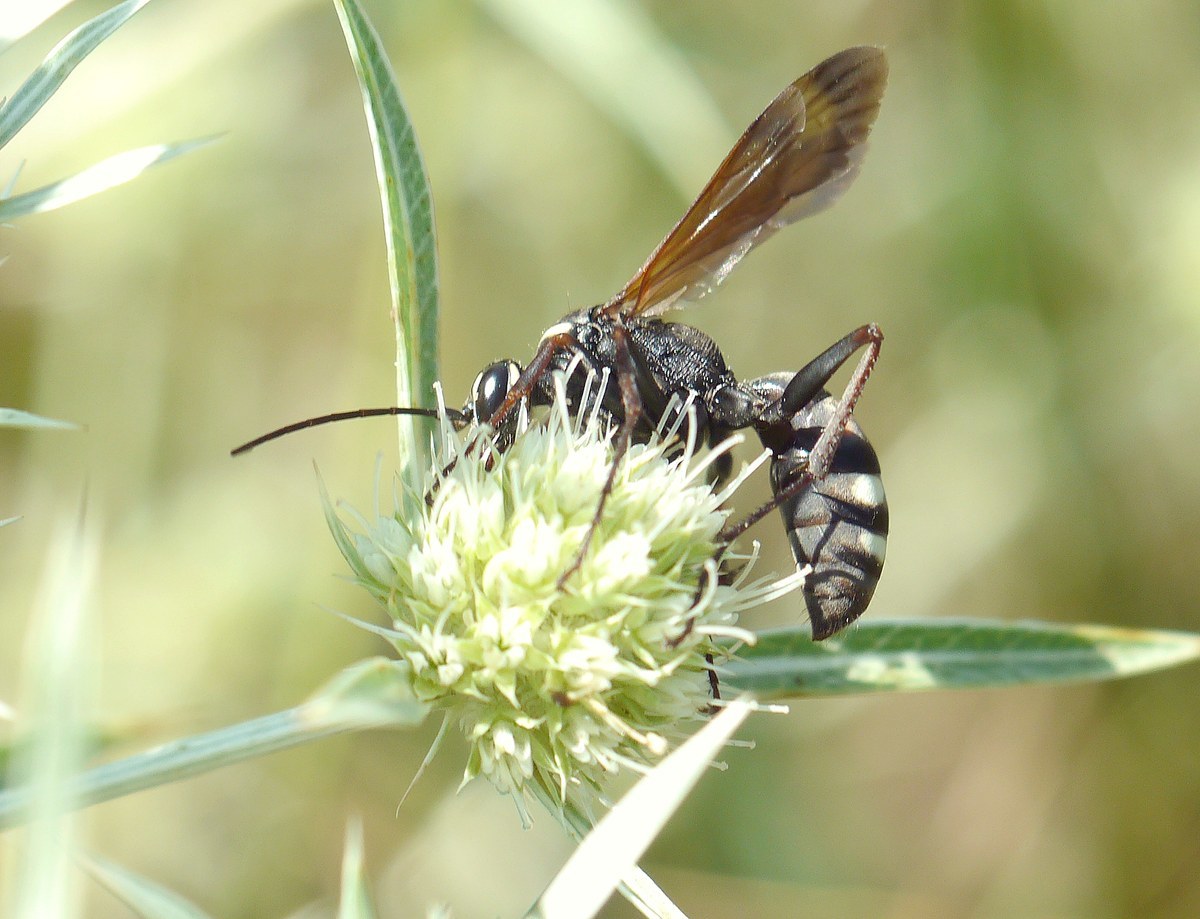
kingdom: Animalia
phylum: Arthropoda
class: Insecta
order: Hymenoptera
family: Pompilidae
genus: Cryptocheilus
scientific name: Cryptocheilus egregius
